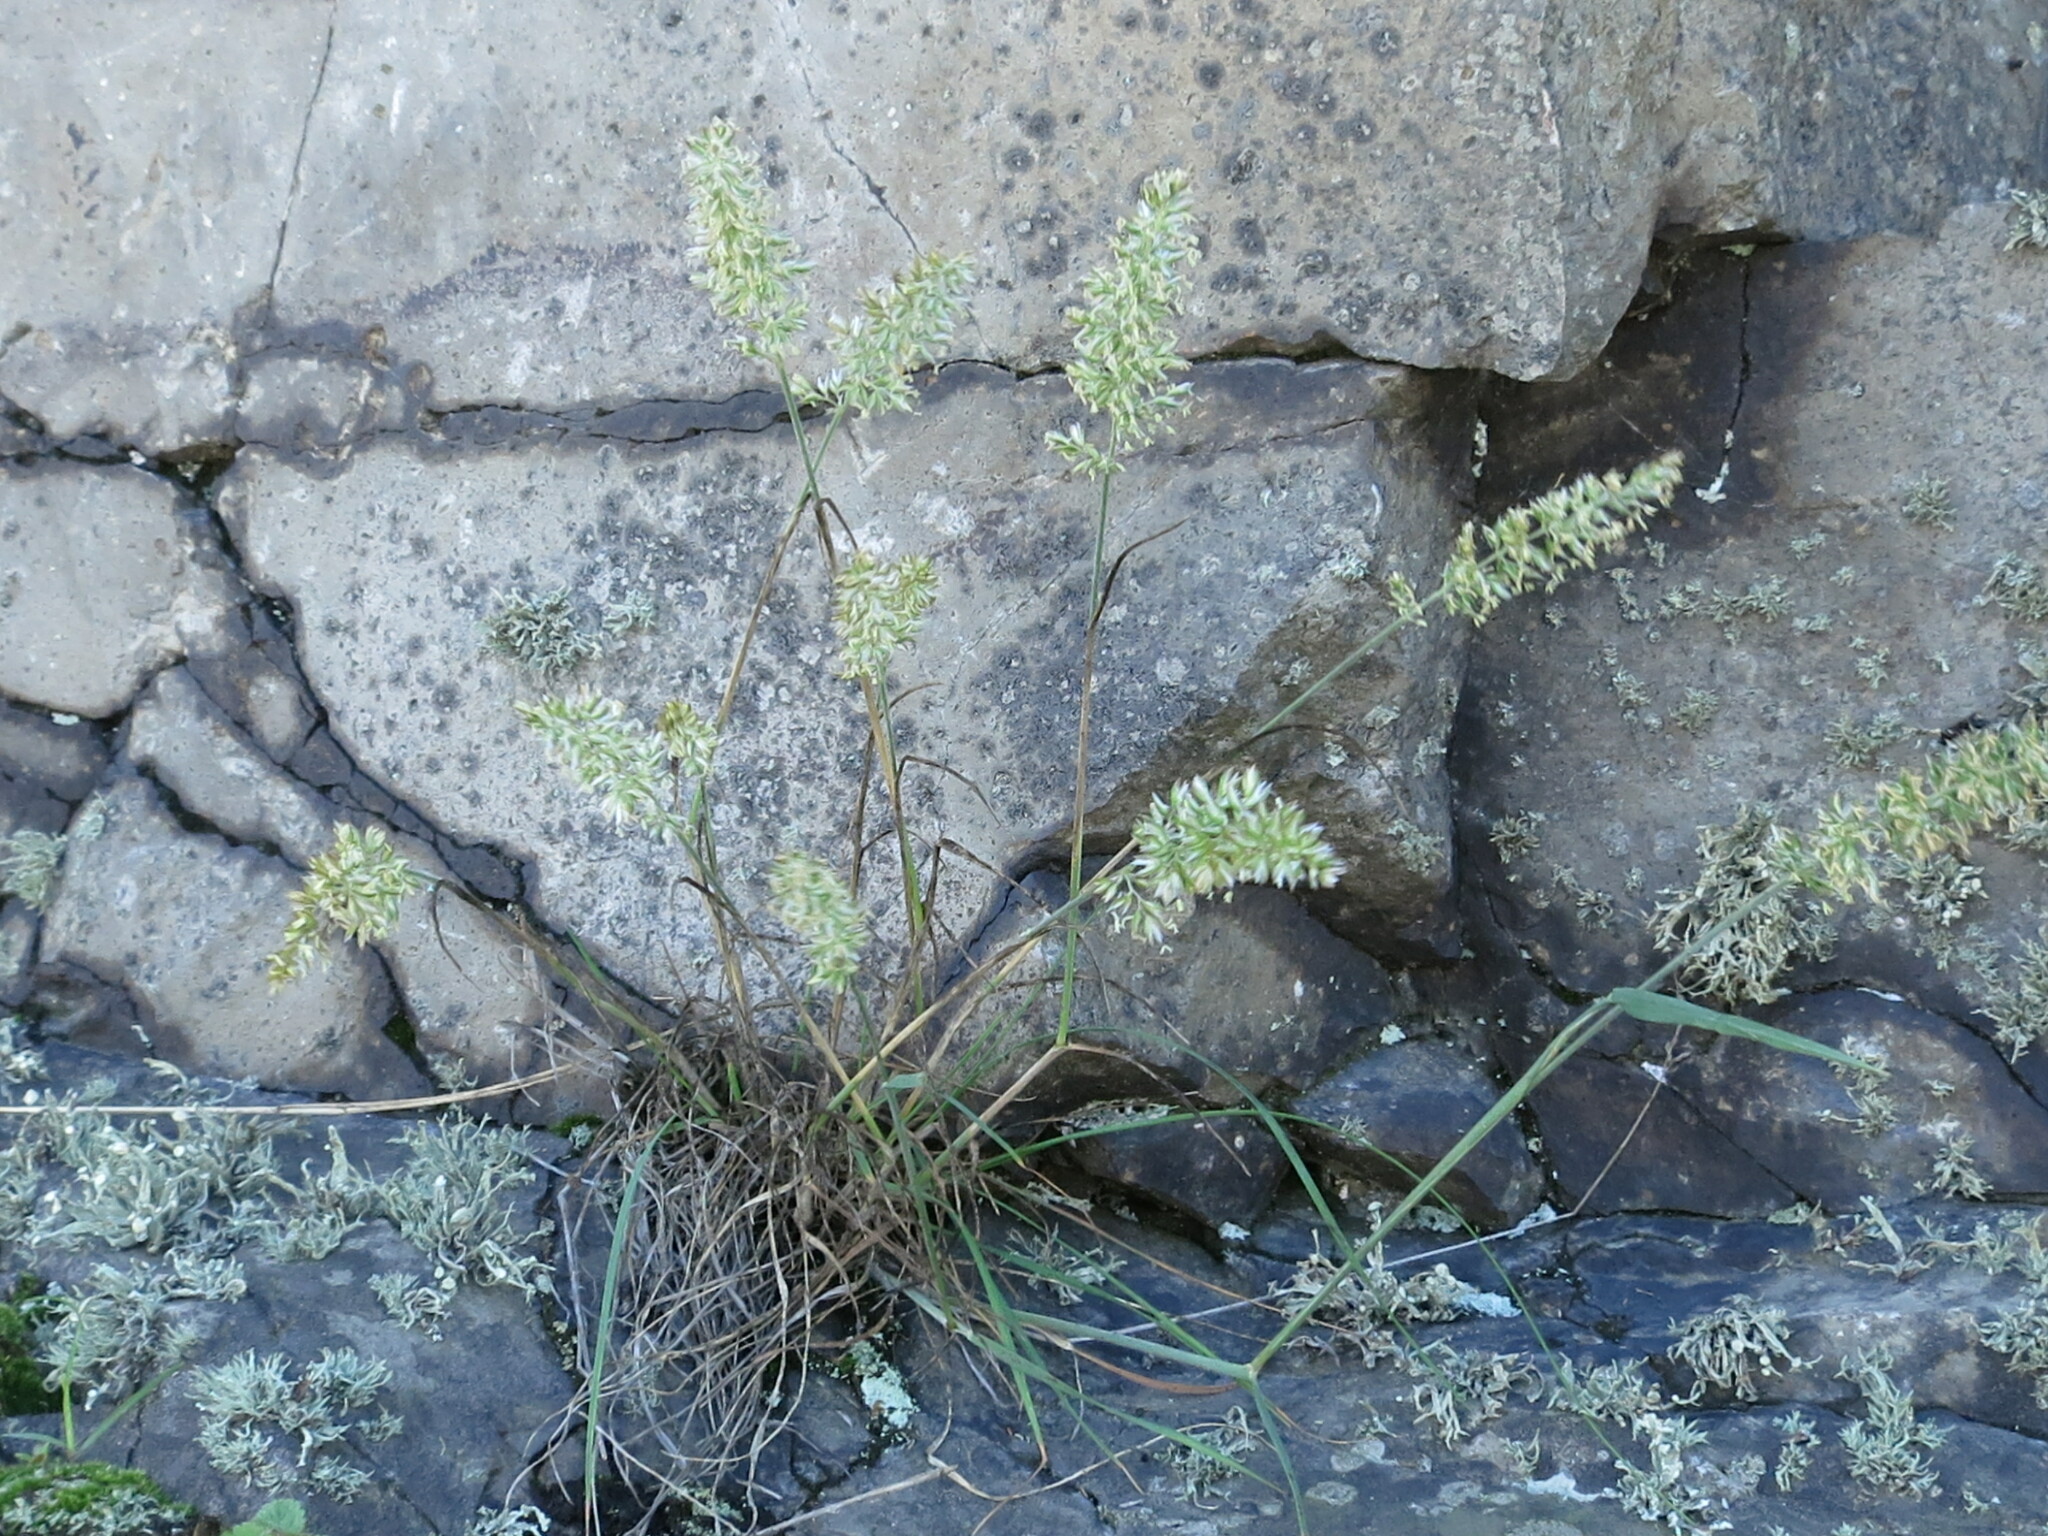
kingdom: Plantae
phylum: Tracheophyta
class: Liliopsida
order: Poales
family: Poaceae
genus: Koeleria
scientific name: Koeleria askoldensis
